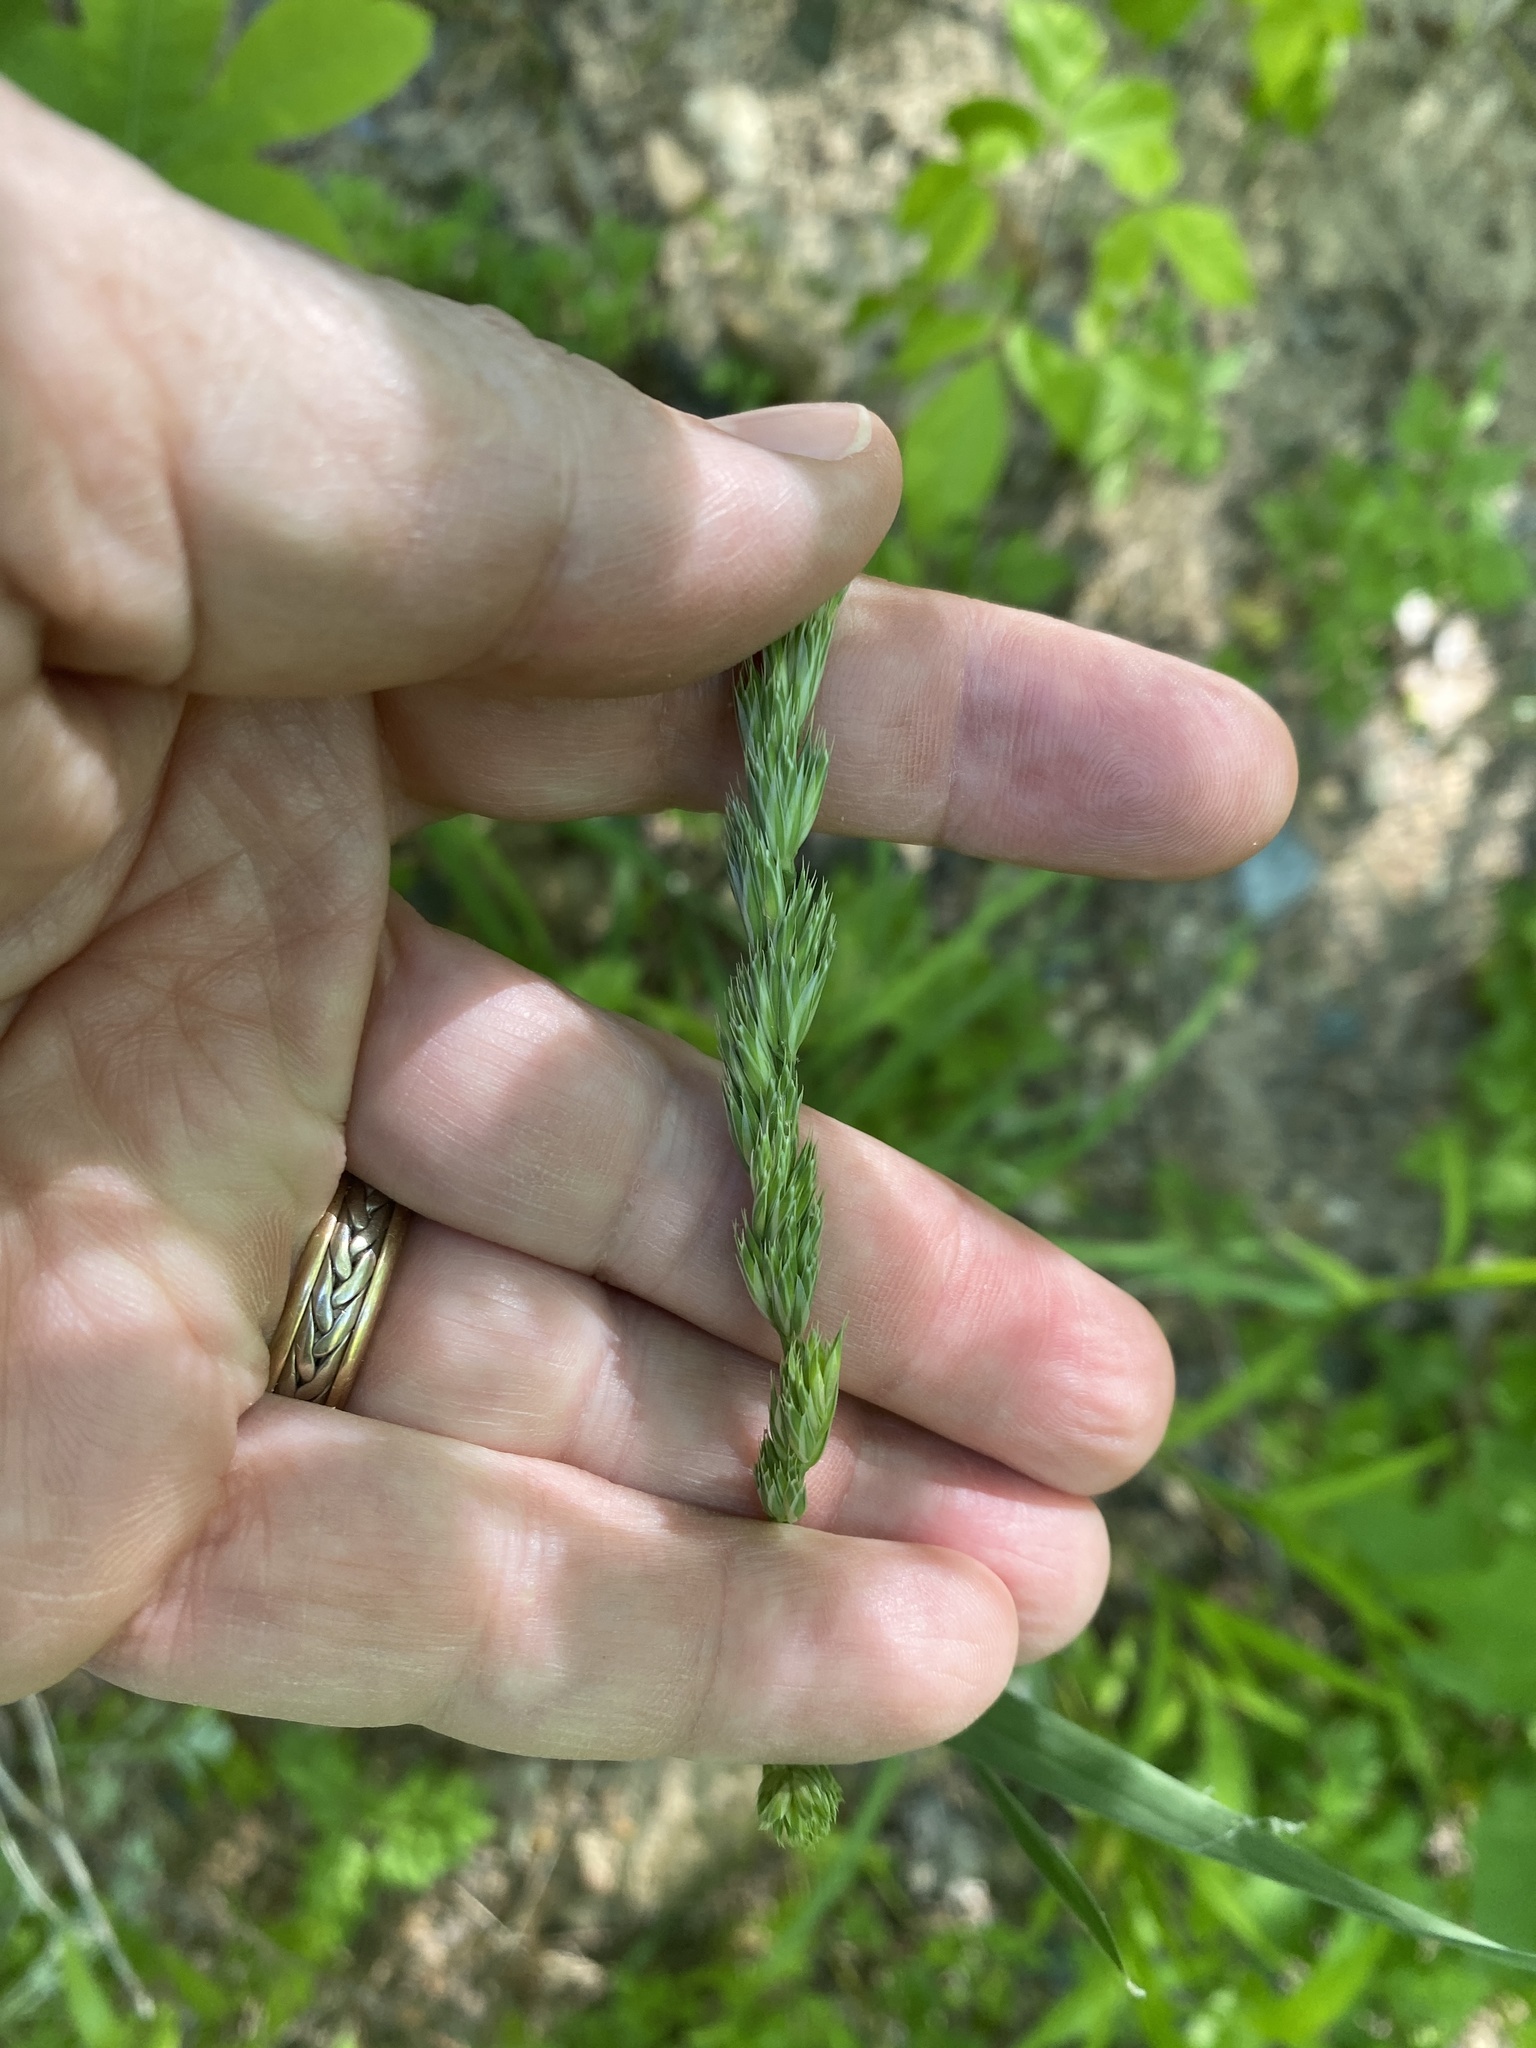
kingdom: Plantae
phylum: Tracheophyta
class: Liliopsida
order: Poales
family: Poaceae
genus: Dactylis
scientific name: Dactylis glomerata
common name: Orchardgrass
